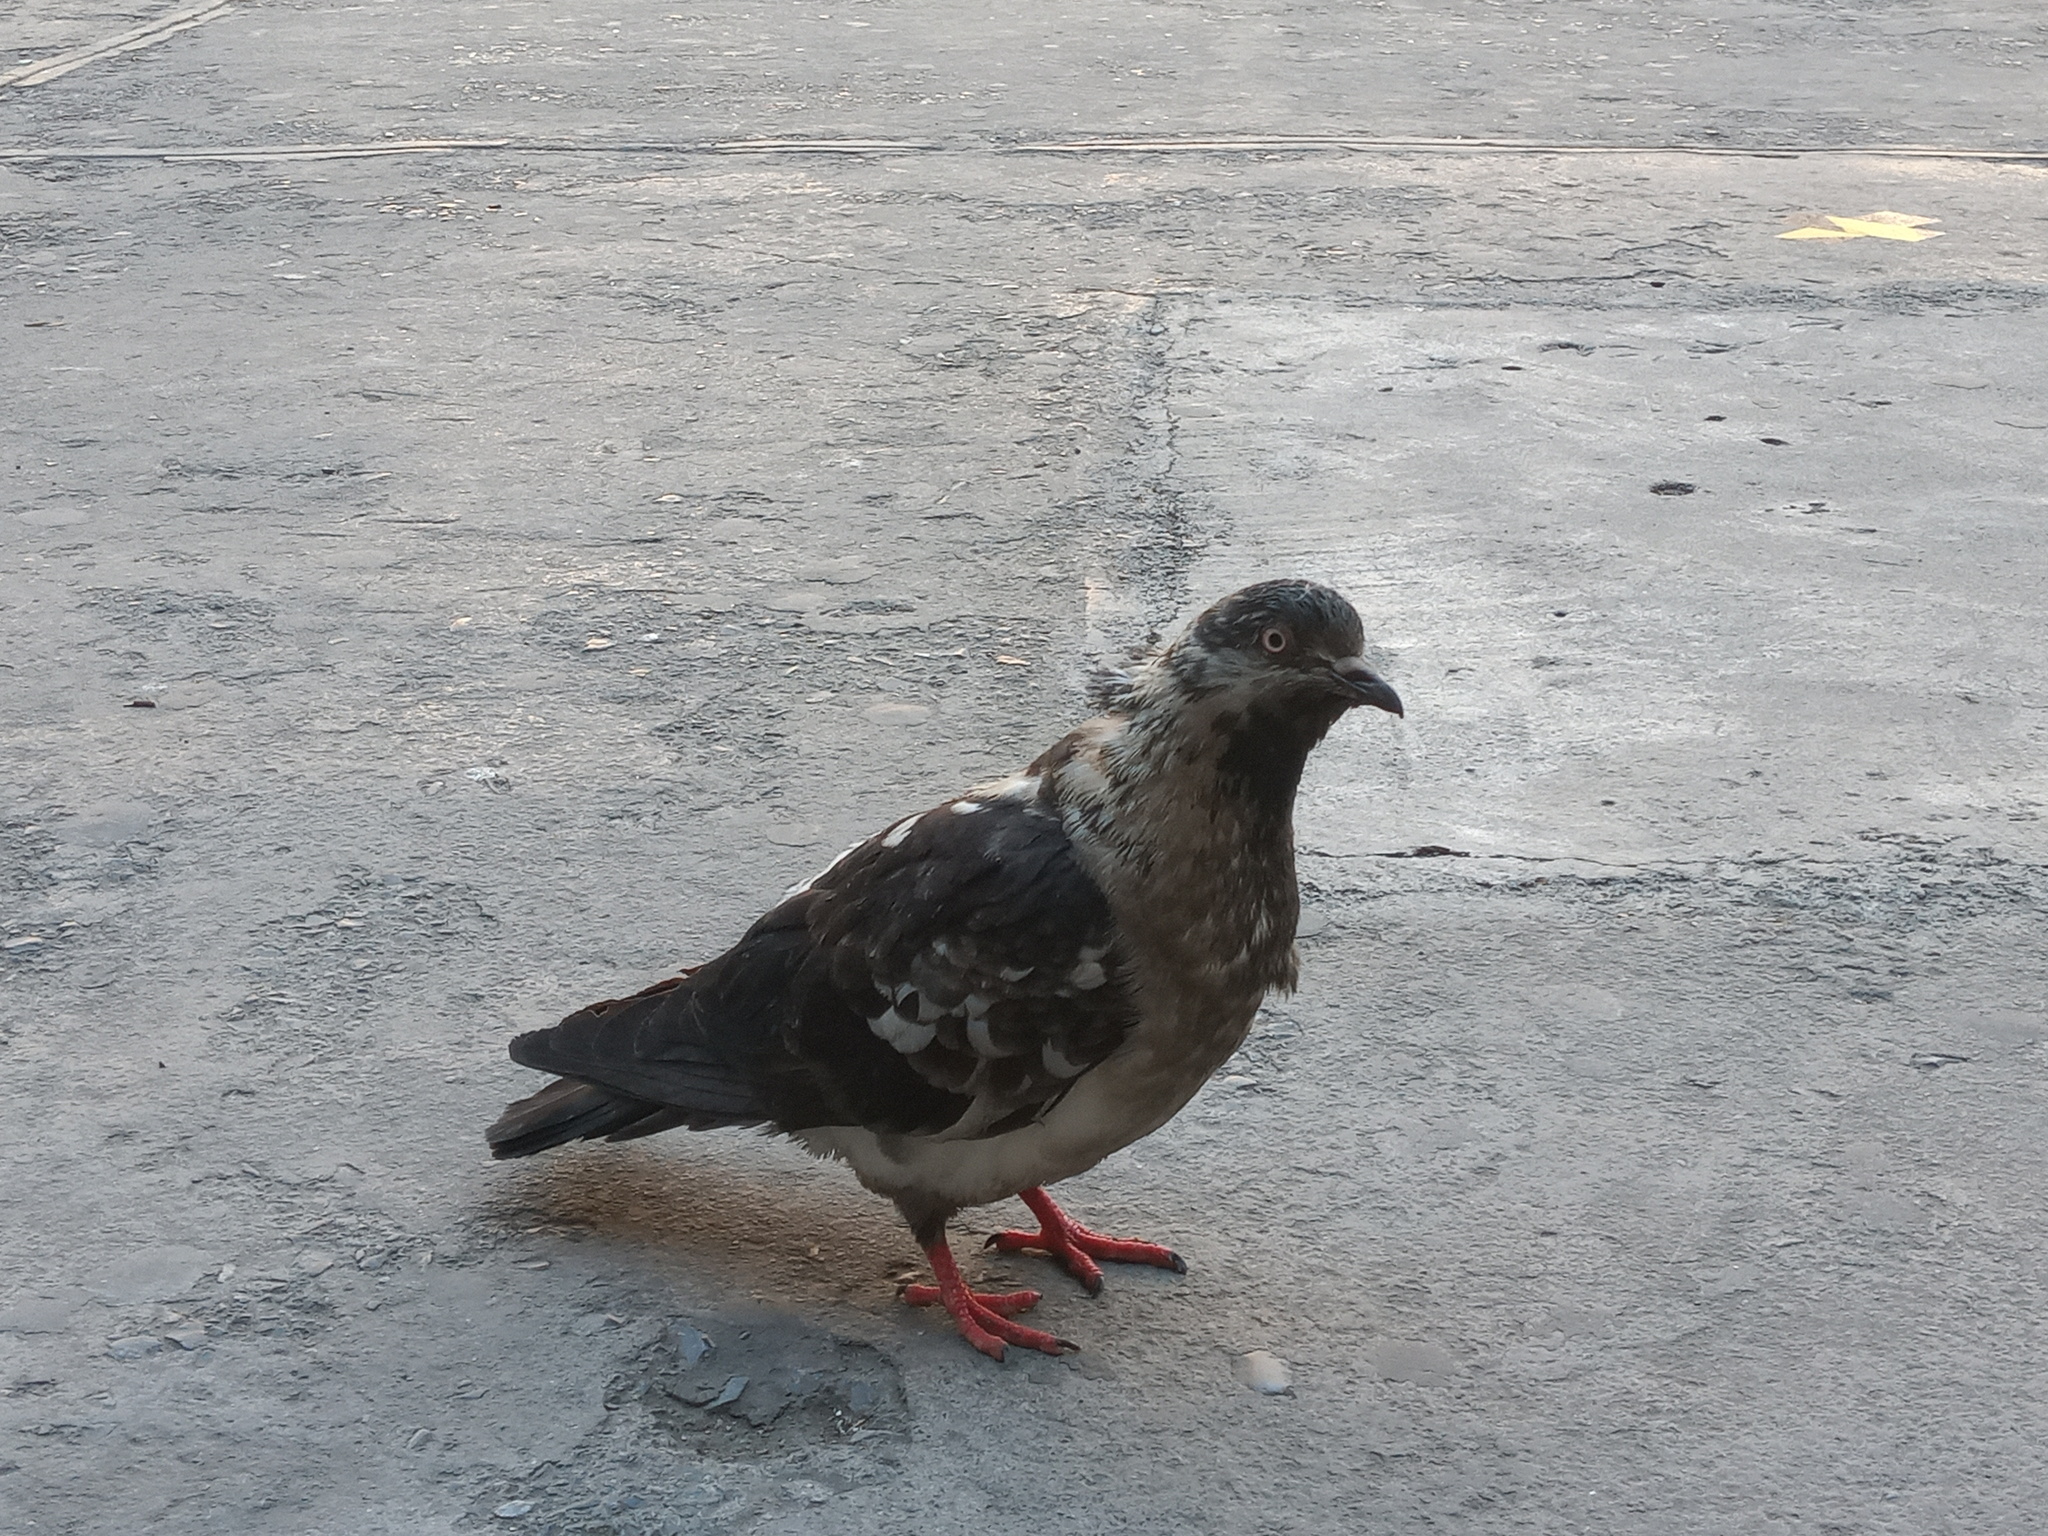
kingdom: Animalia
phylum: Chordata
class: Aves
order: Columbiformes
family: Columbidae
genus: Columba
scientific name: Columba livia
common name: Rock pigeon
